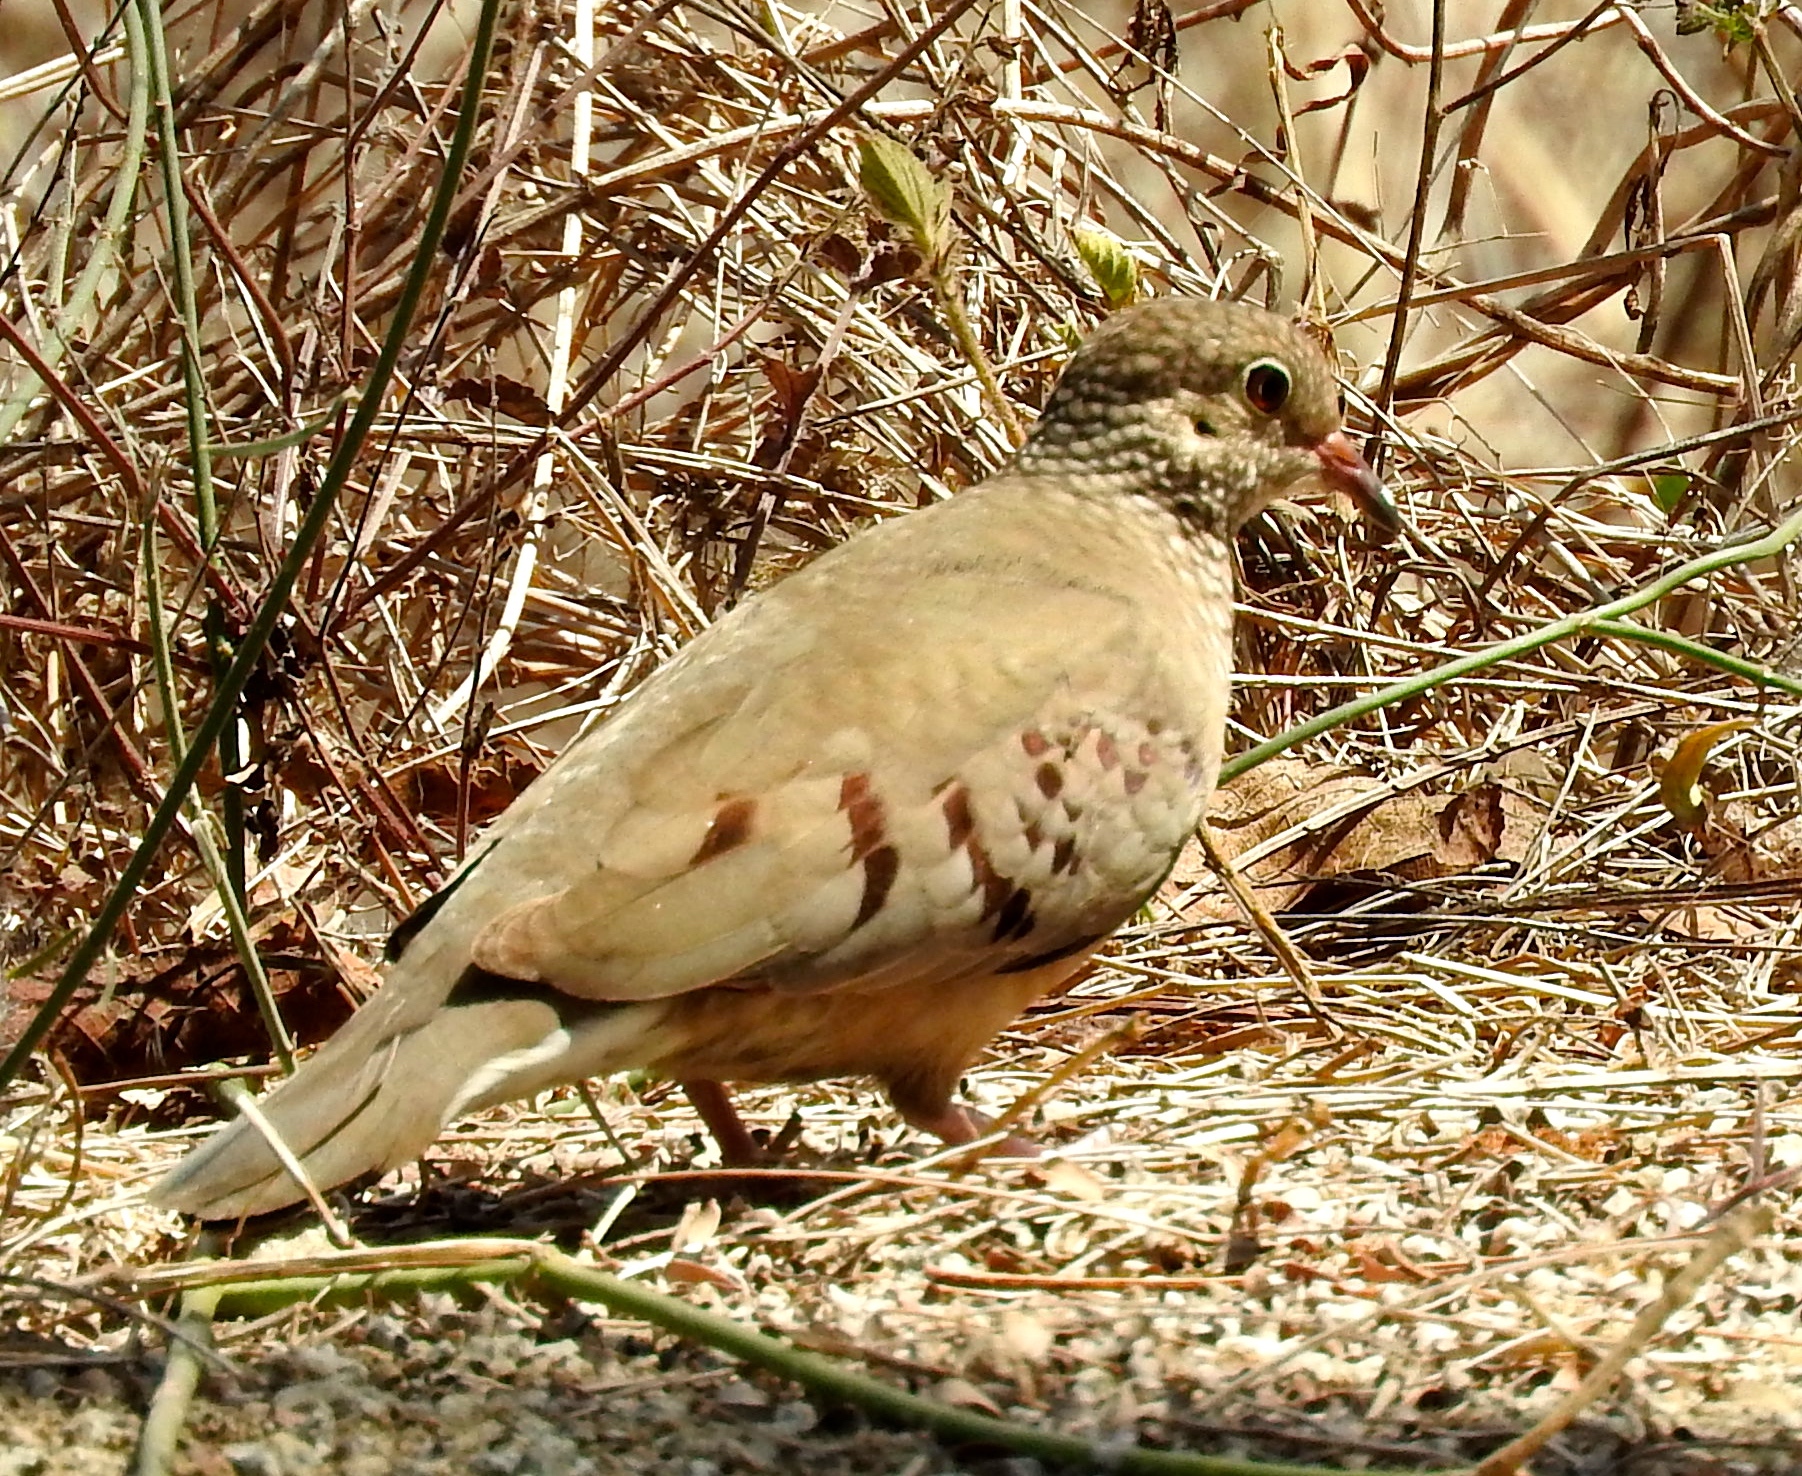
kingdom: Animalia
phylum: Chordata
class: Aves
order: Columbiformes
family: Columbidae
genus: Columbina
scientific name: Columbina passerina
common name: Common ground-dove
